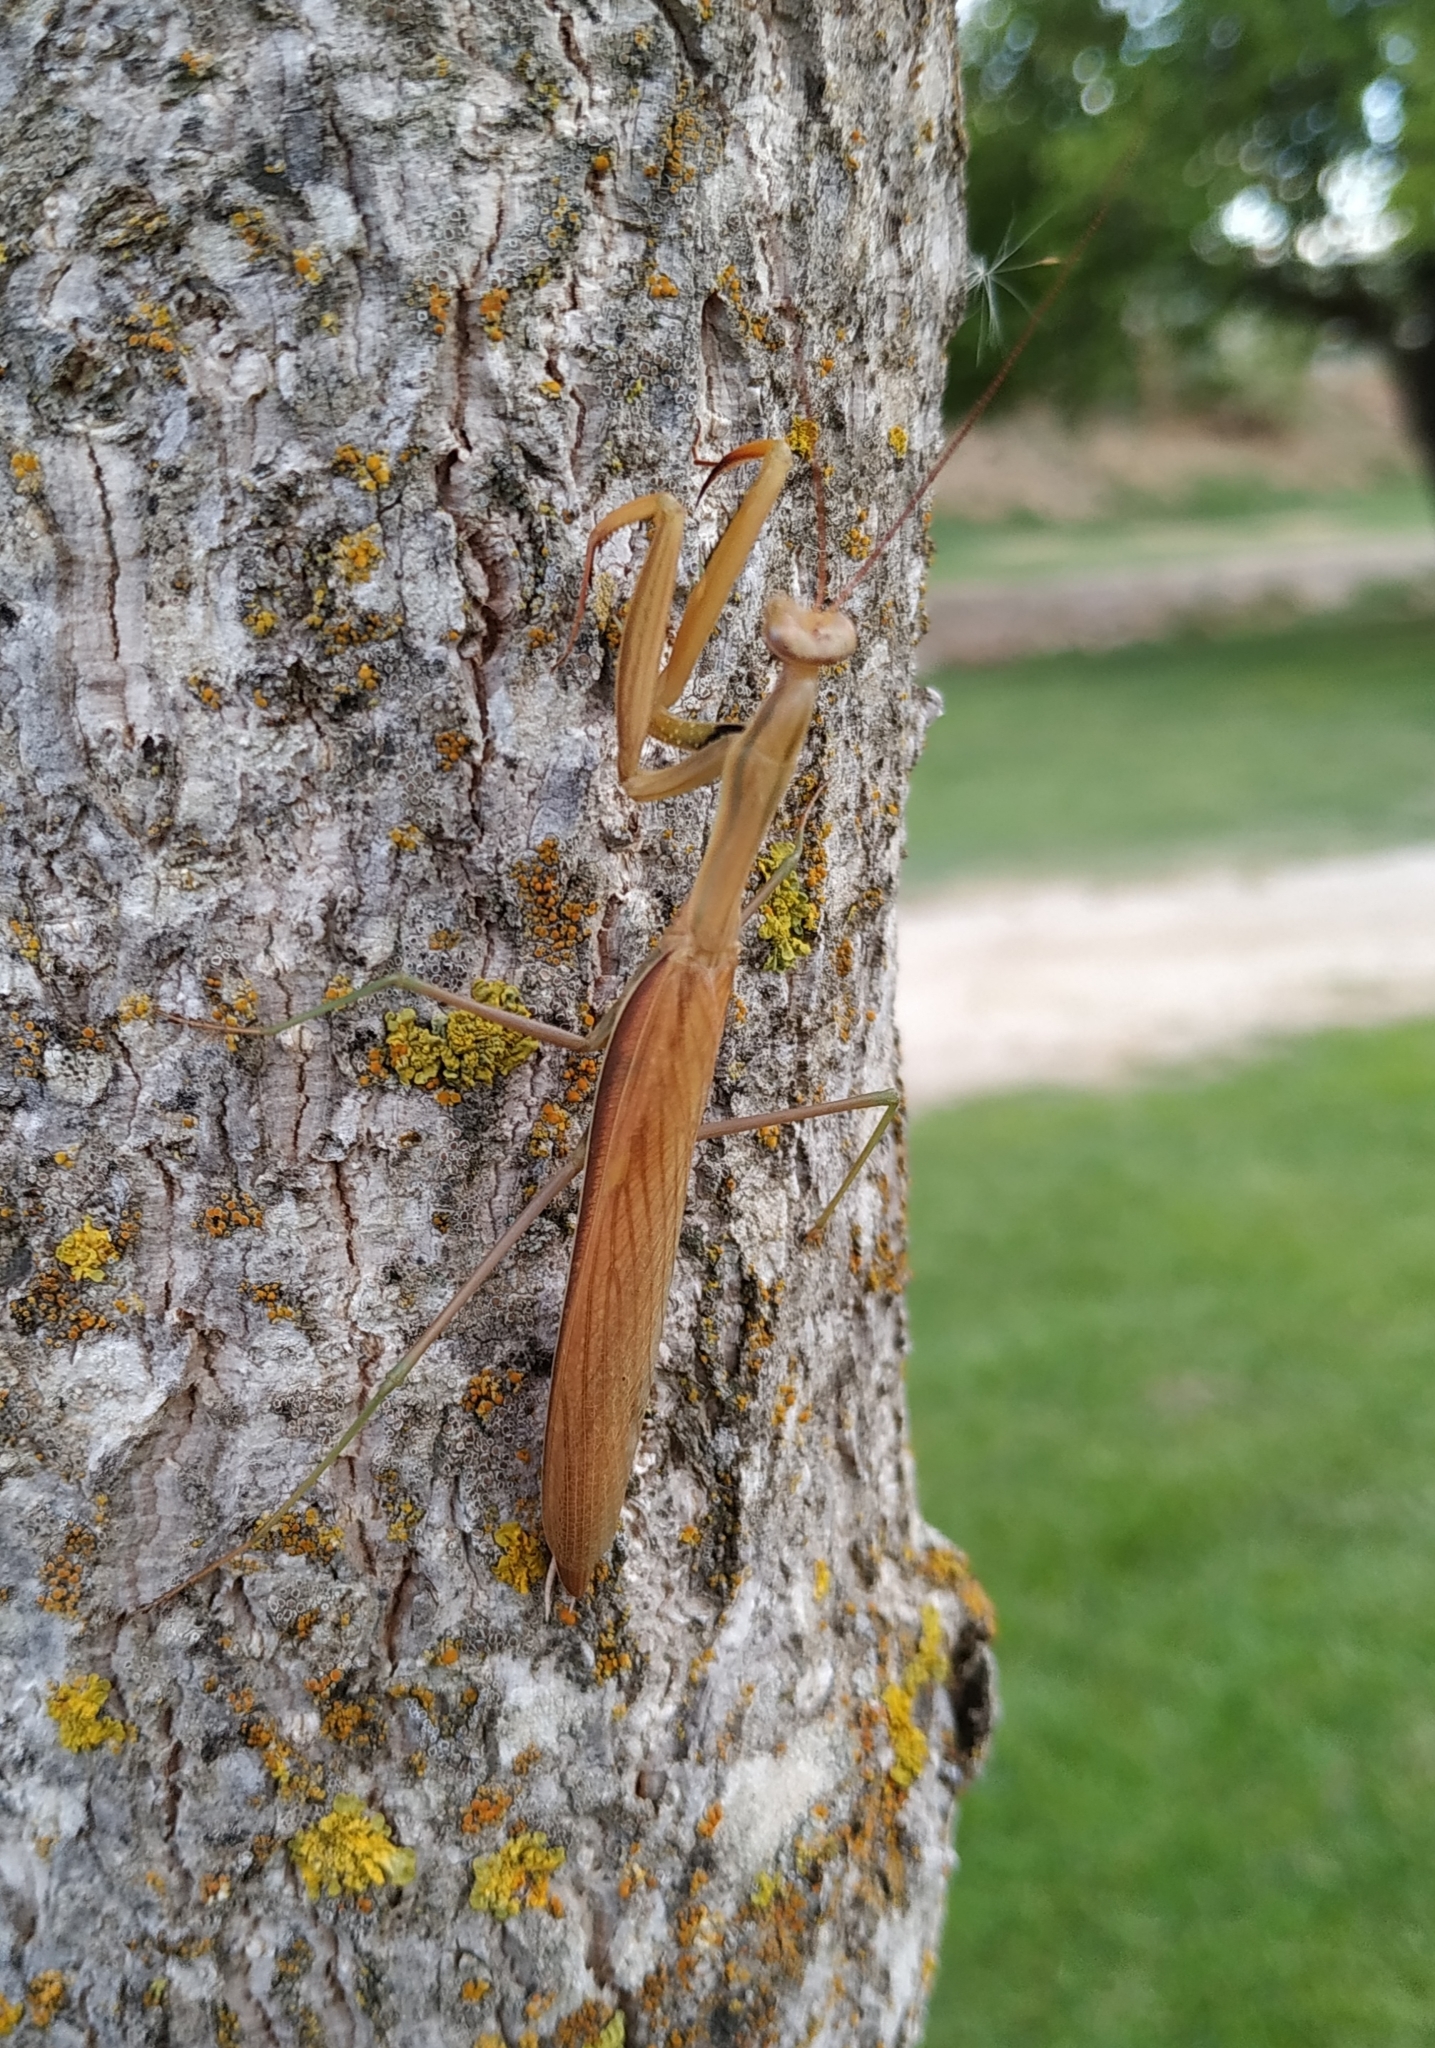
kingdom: Animalia
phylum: Arthropoda
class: Insecta
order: Mantodea
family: Mantidae
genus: Mantis
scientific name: Mantis religiosa
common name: Praying mantis
